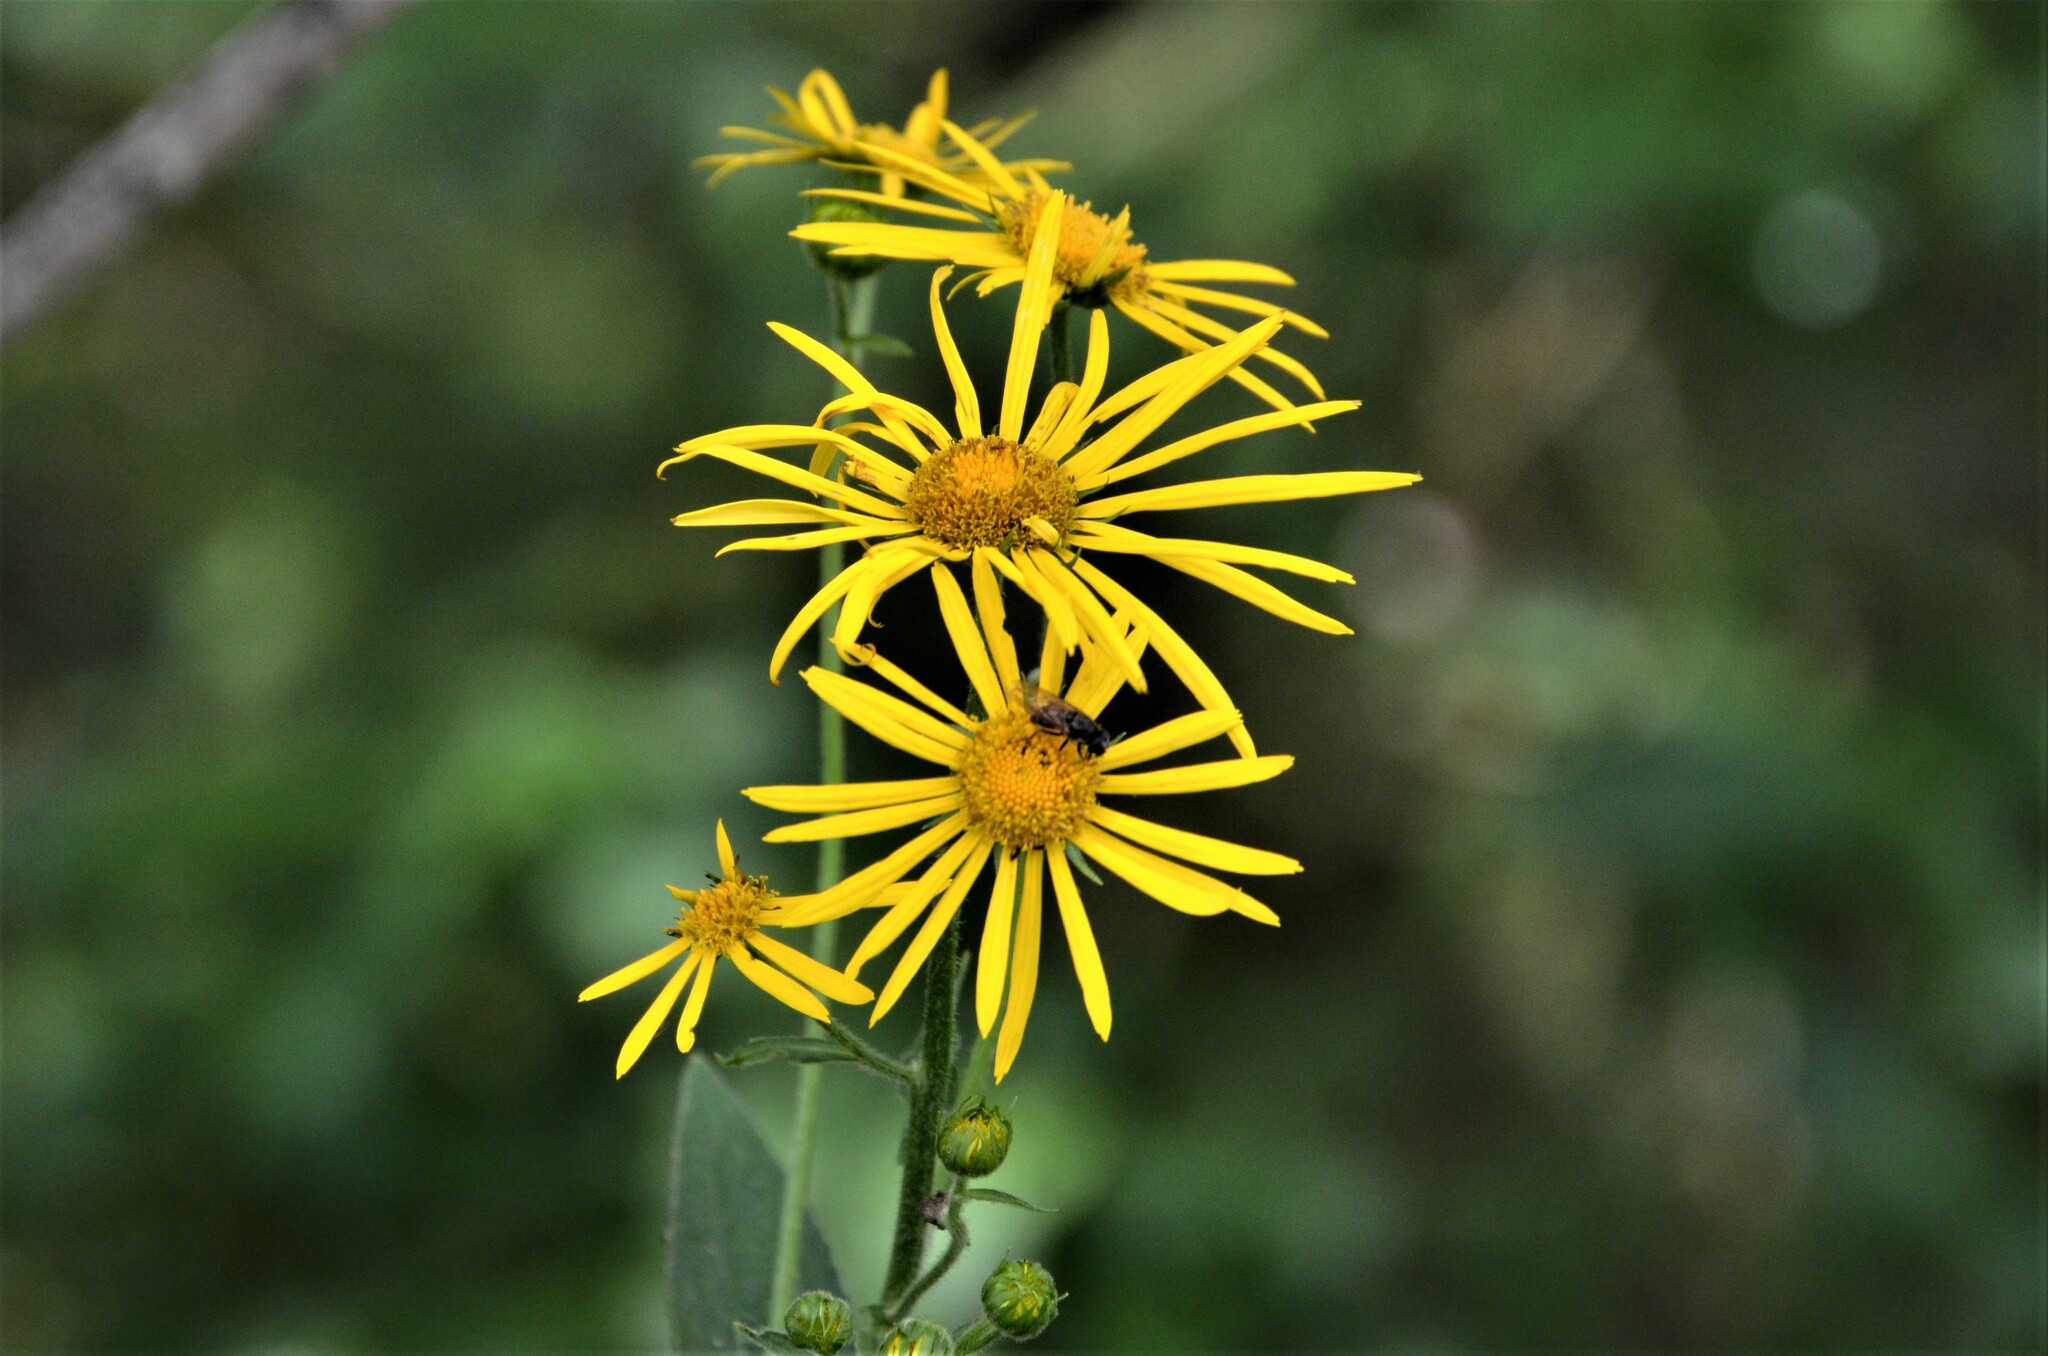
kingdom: Plantae
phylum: Tracheophyta
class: Magnoliopsida
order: Asterales
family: Asteraceae
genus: Doronicum
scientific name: Doronicum austriacum
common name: Austrian leopard's-bane
